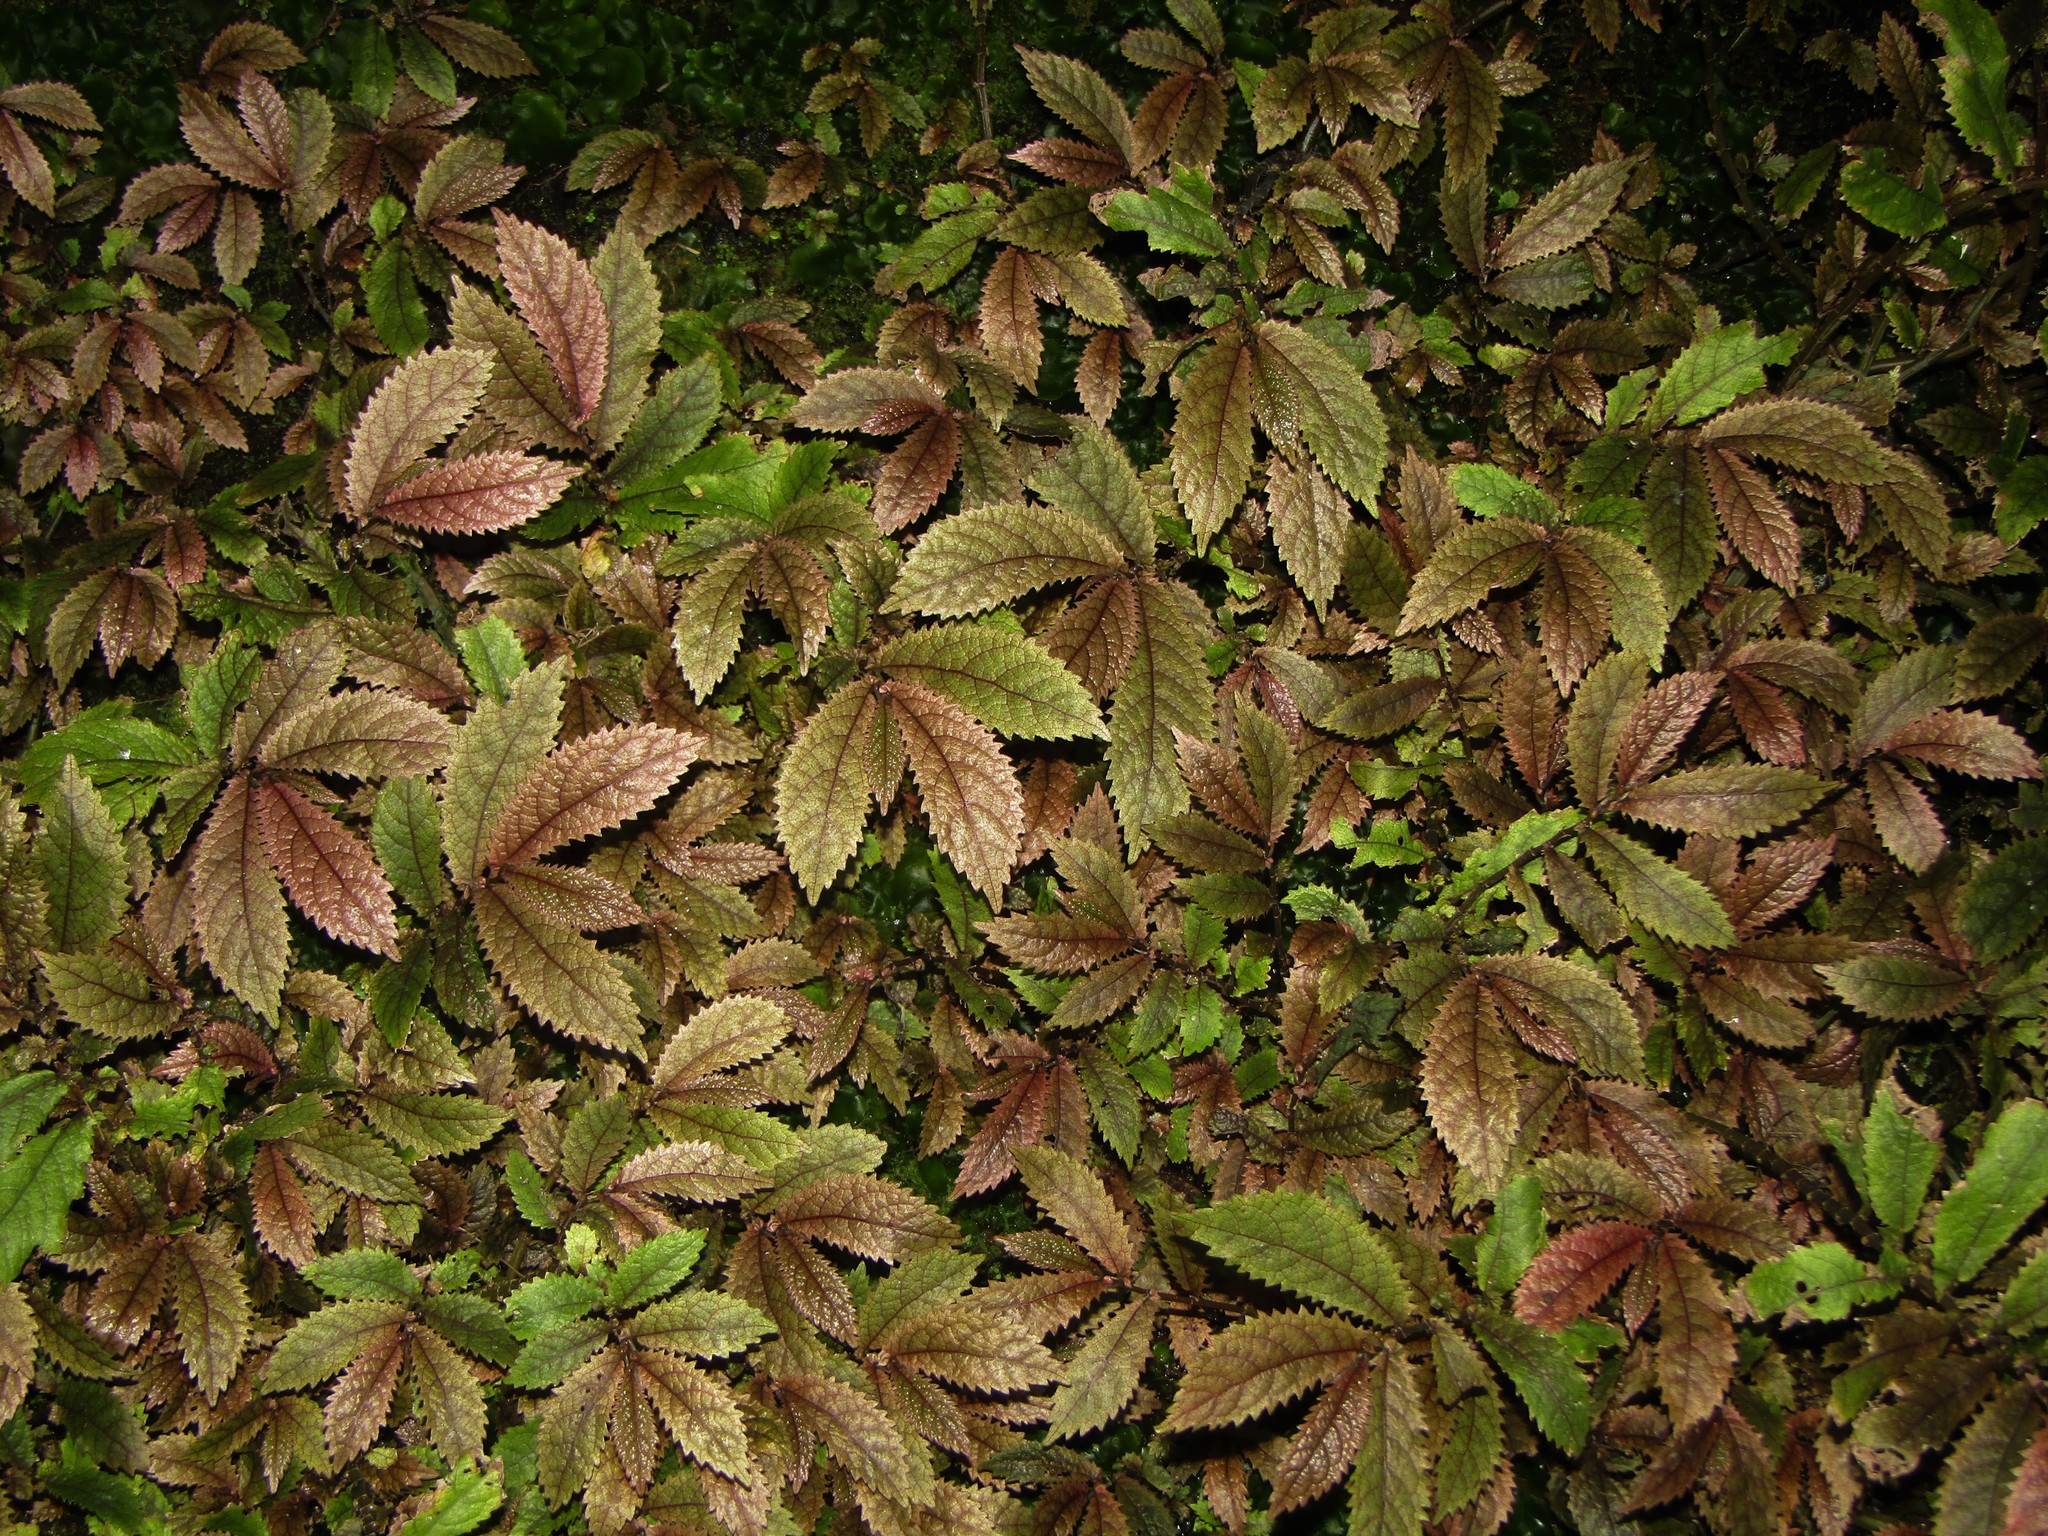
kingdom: Plantae
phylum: Tracheophyta
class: Magnoliopsida
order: Rosales
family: Urticaceae
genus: Elatostema
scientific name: Elatostema rugosum
